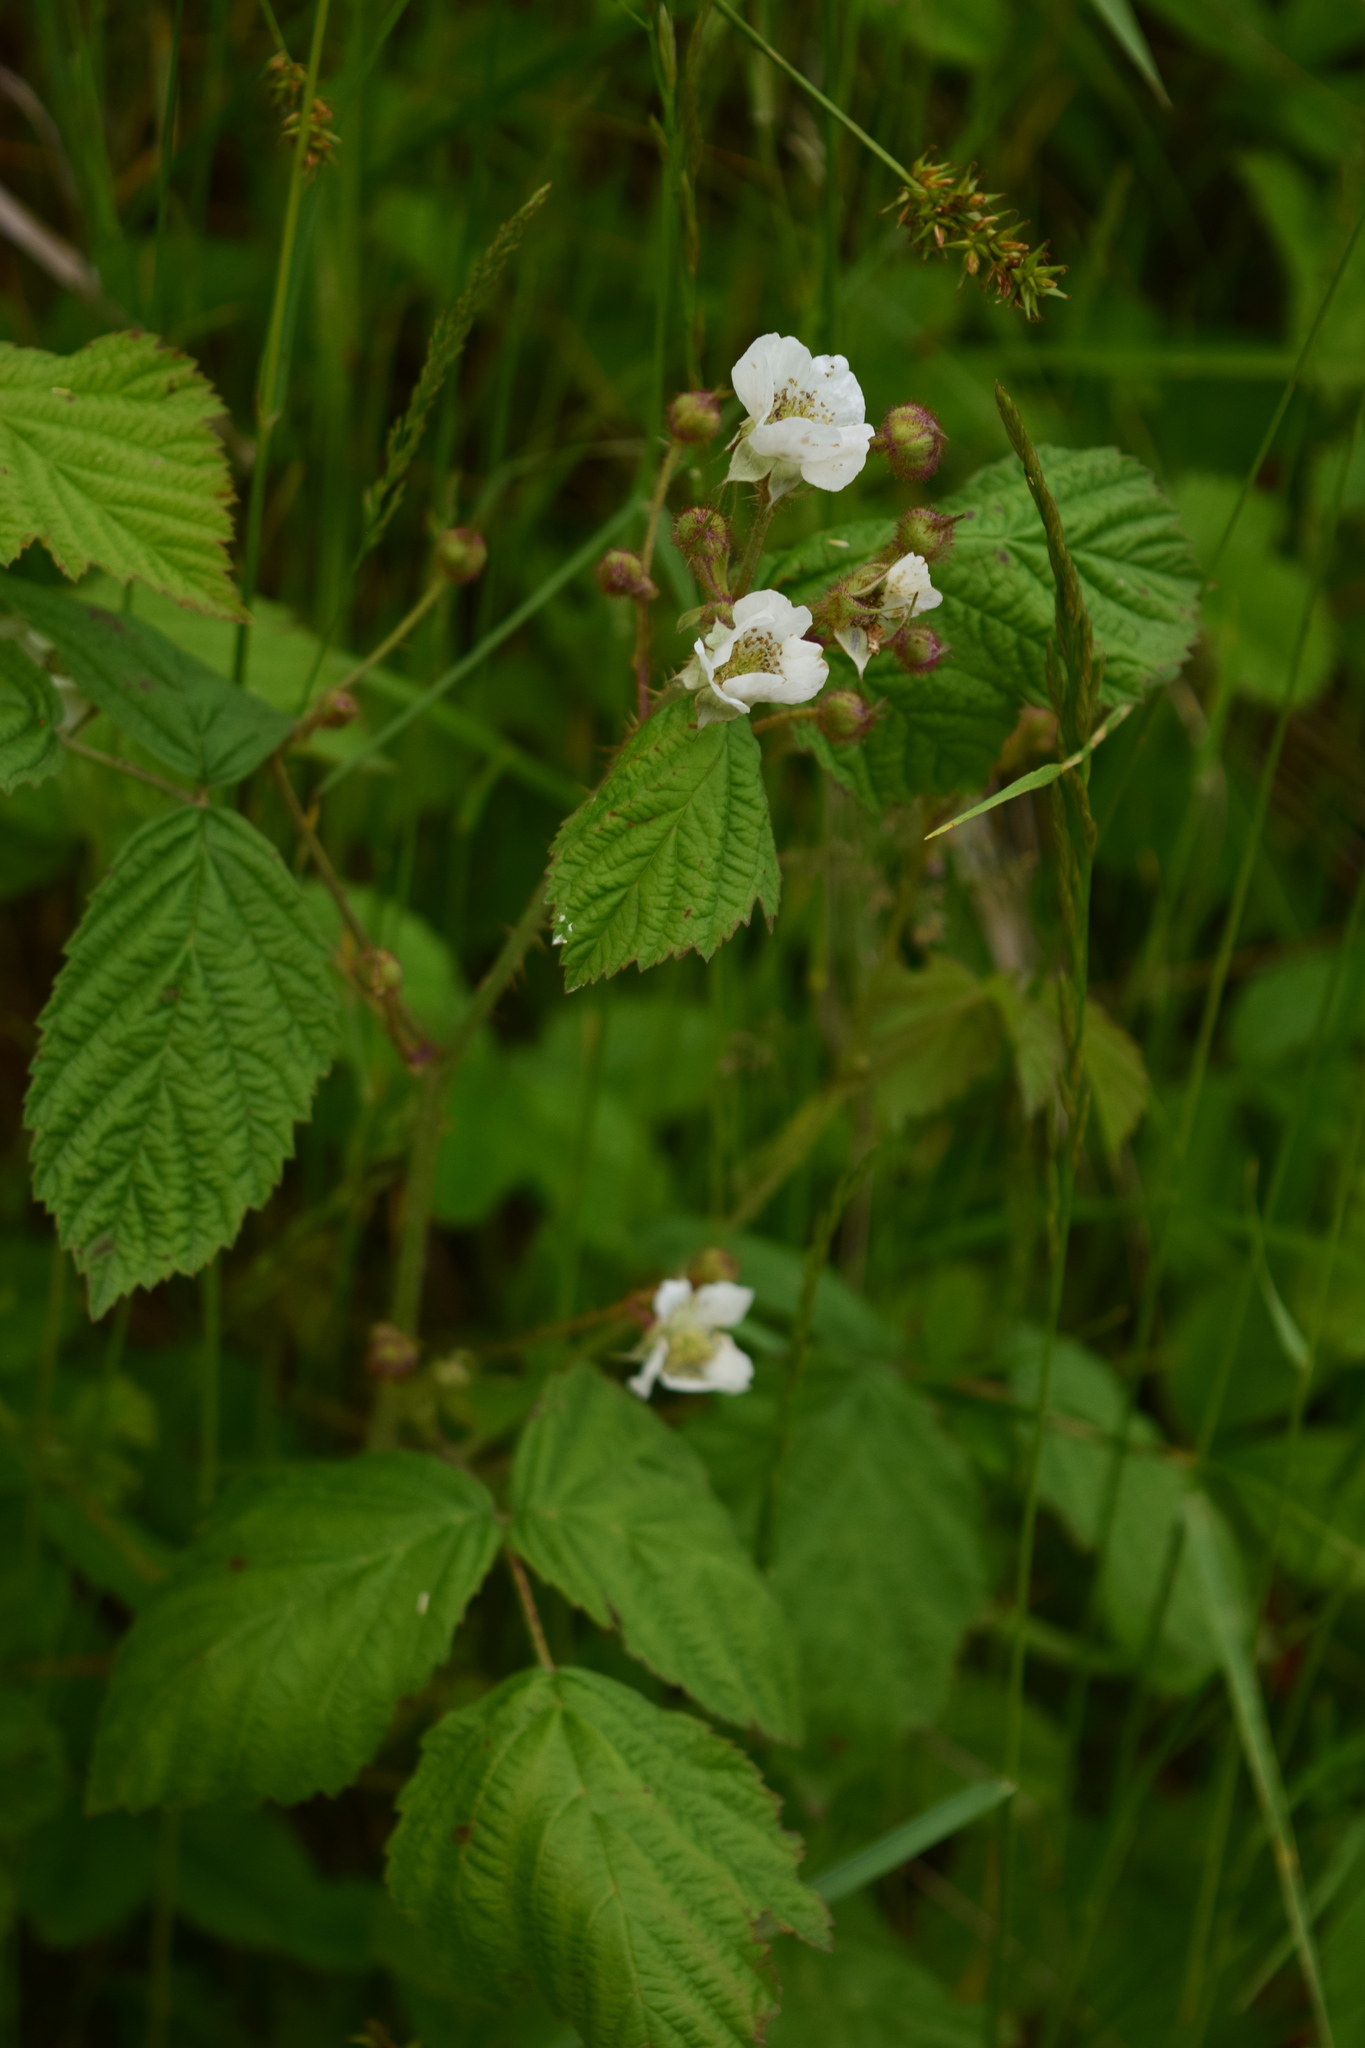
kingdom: Plantae
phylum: Tracheophyta
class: Magnoliopsida
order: Rosales
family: Rosaceae
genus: Rubus
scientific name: Rubus caesius
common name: Dewberry
